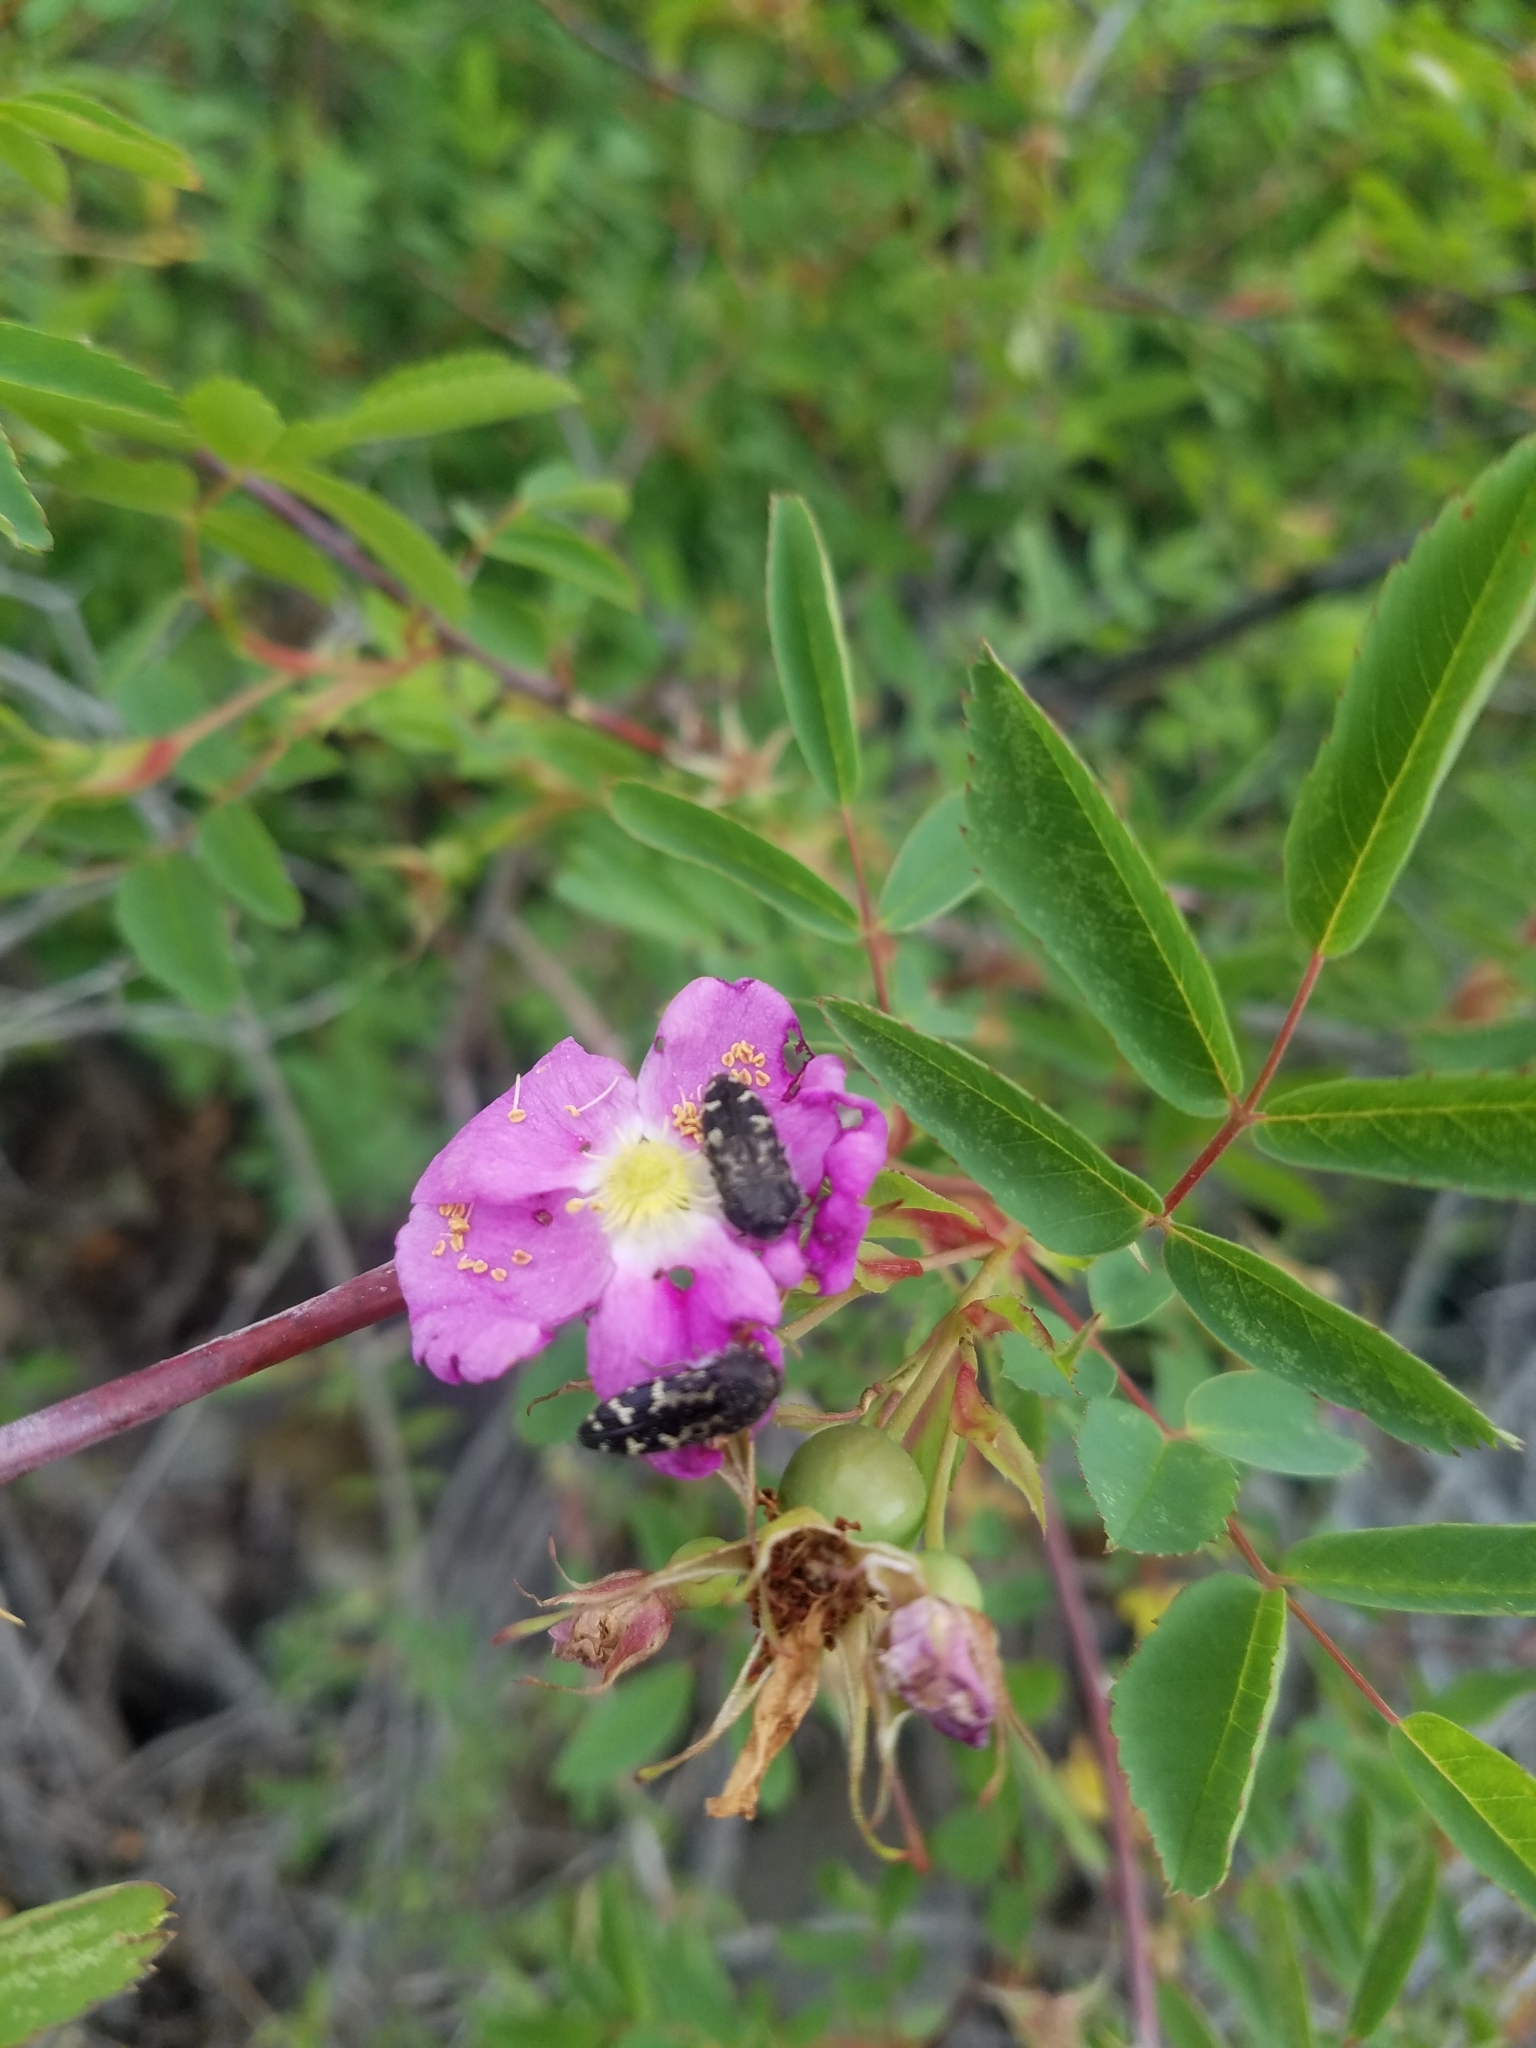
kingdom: Animalia
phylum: Arthropoda
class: Insecta
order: Coleoptera
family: Buprestidae
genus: Acmaeodera
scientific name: Acmaeodera connexa
